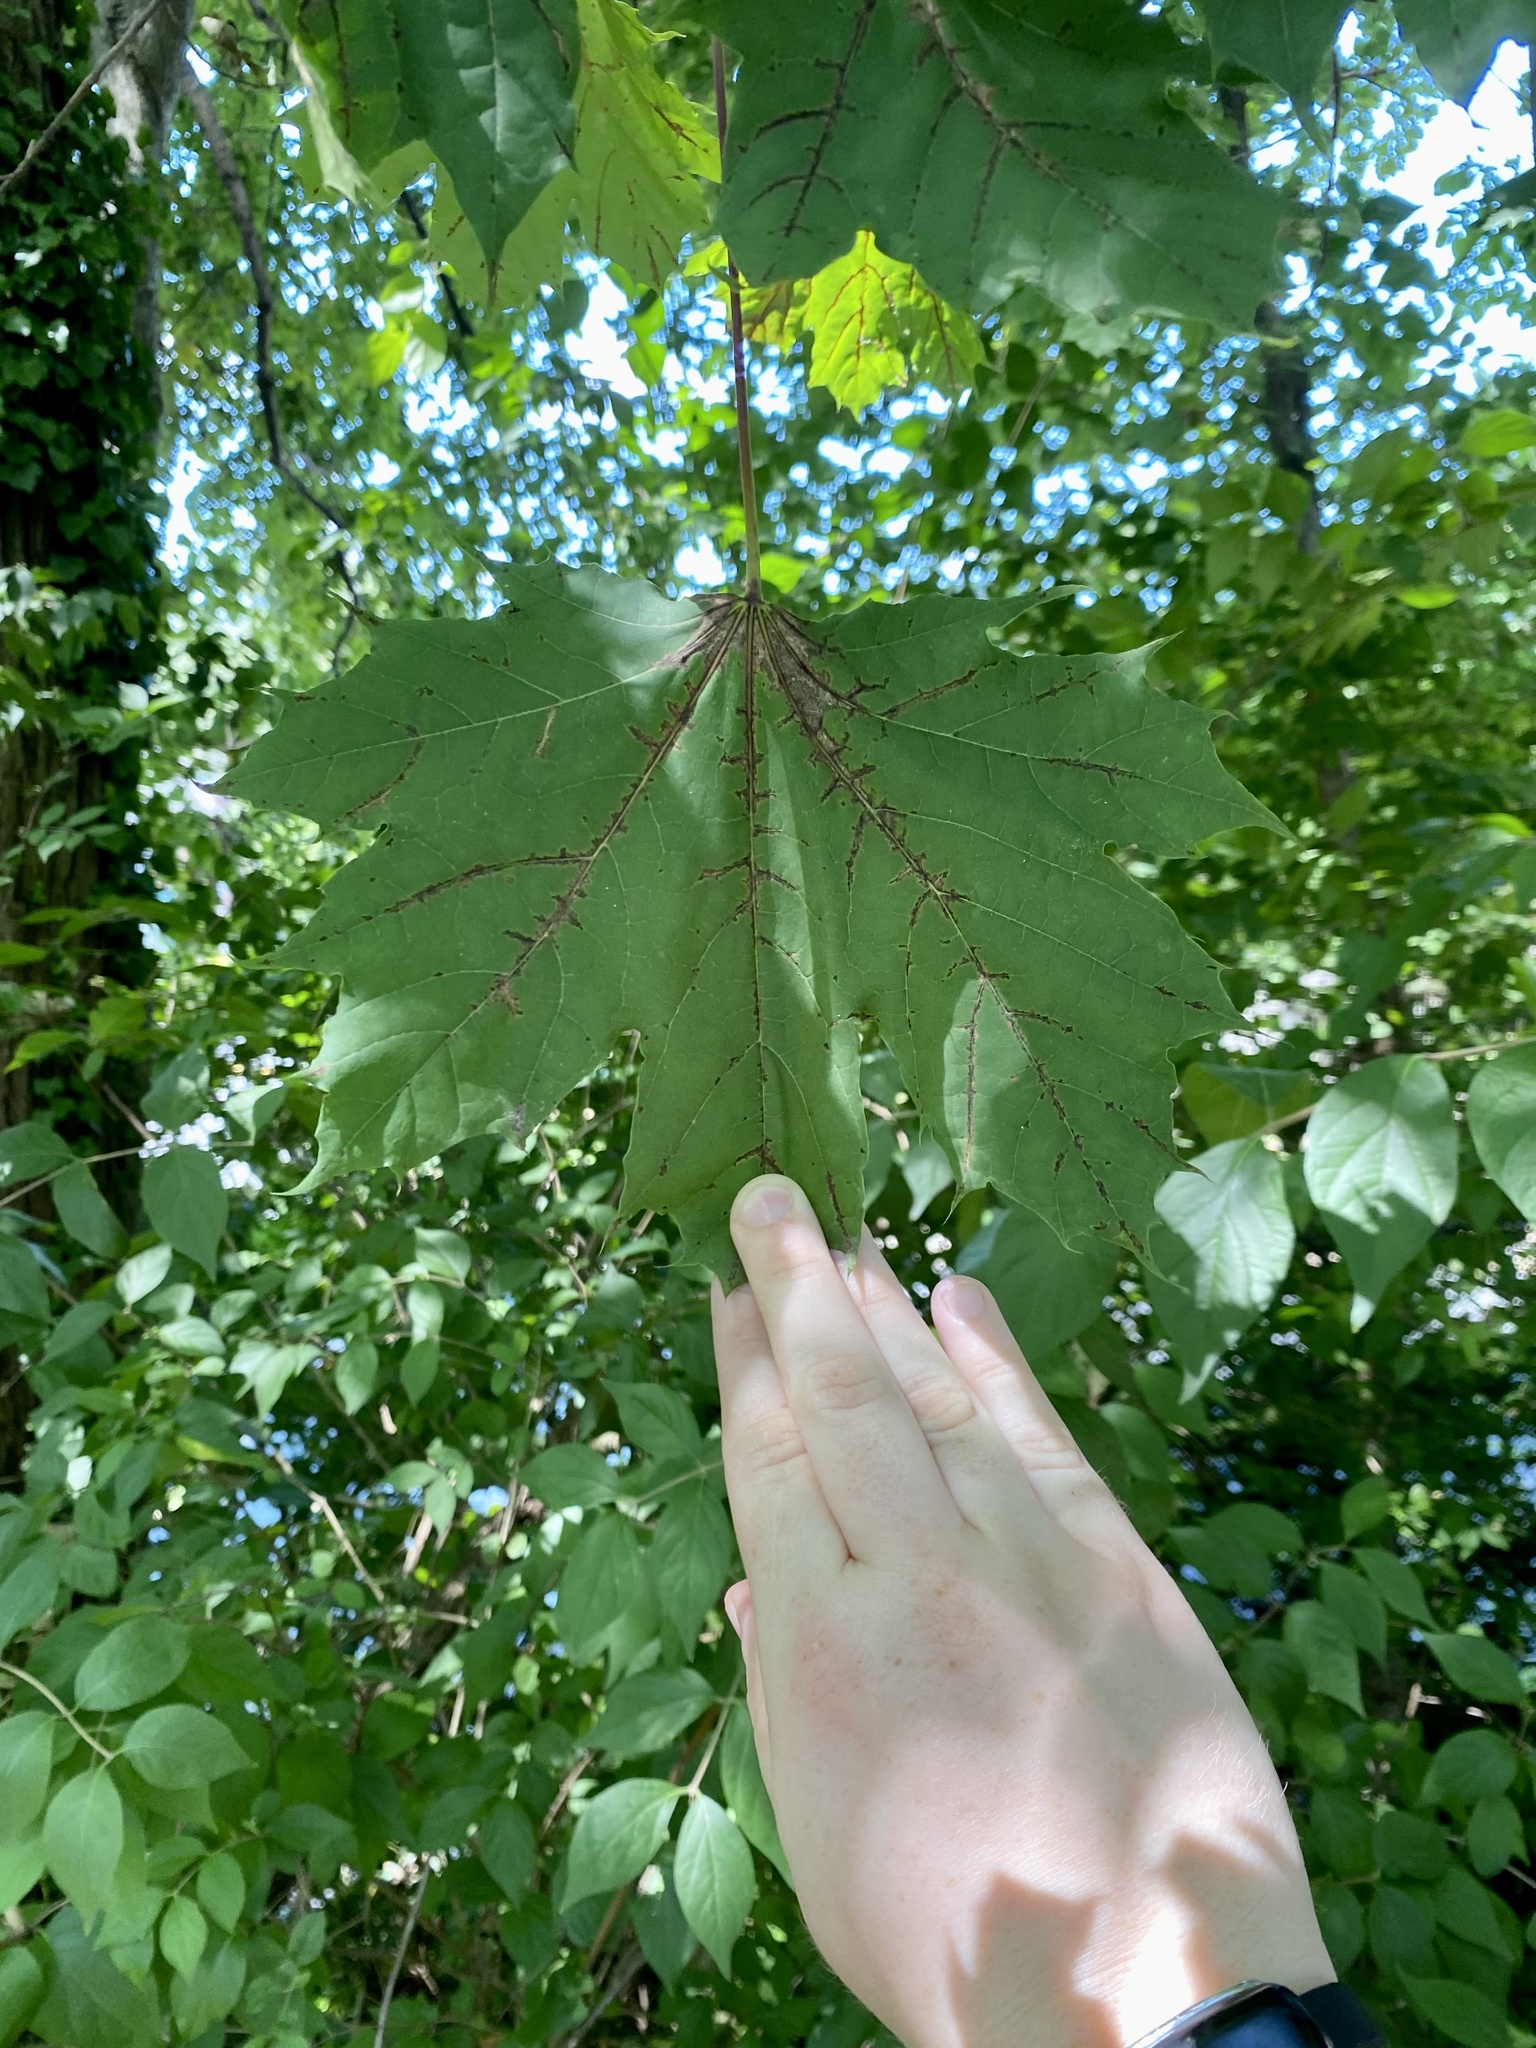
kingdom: Plantae
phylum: Tracheophyta
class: Magnoliopsida
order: Sapindales
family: Sapindaceae
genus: Acer
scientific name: Acer platanoides
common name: Norway maple
